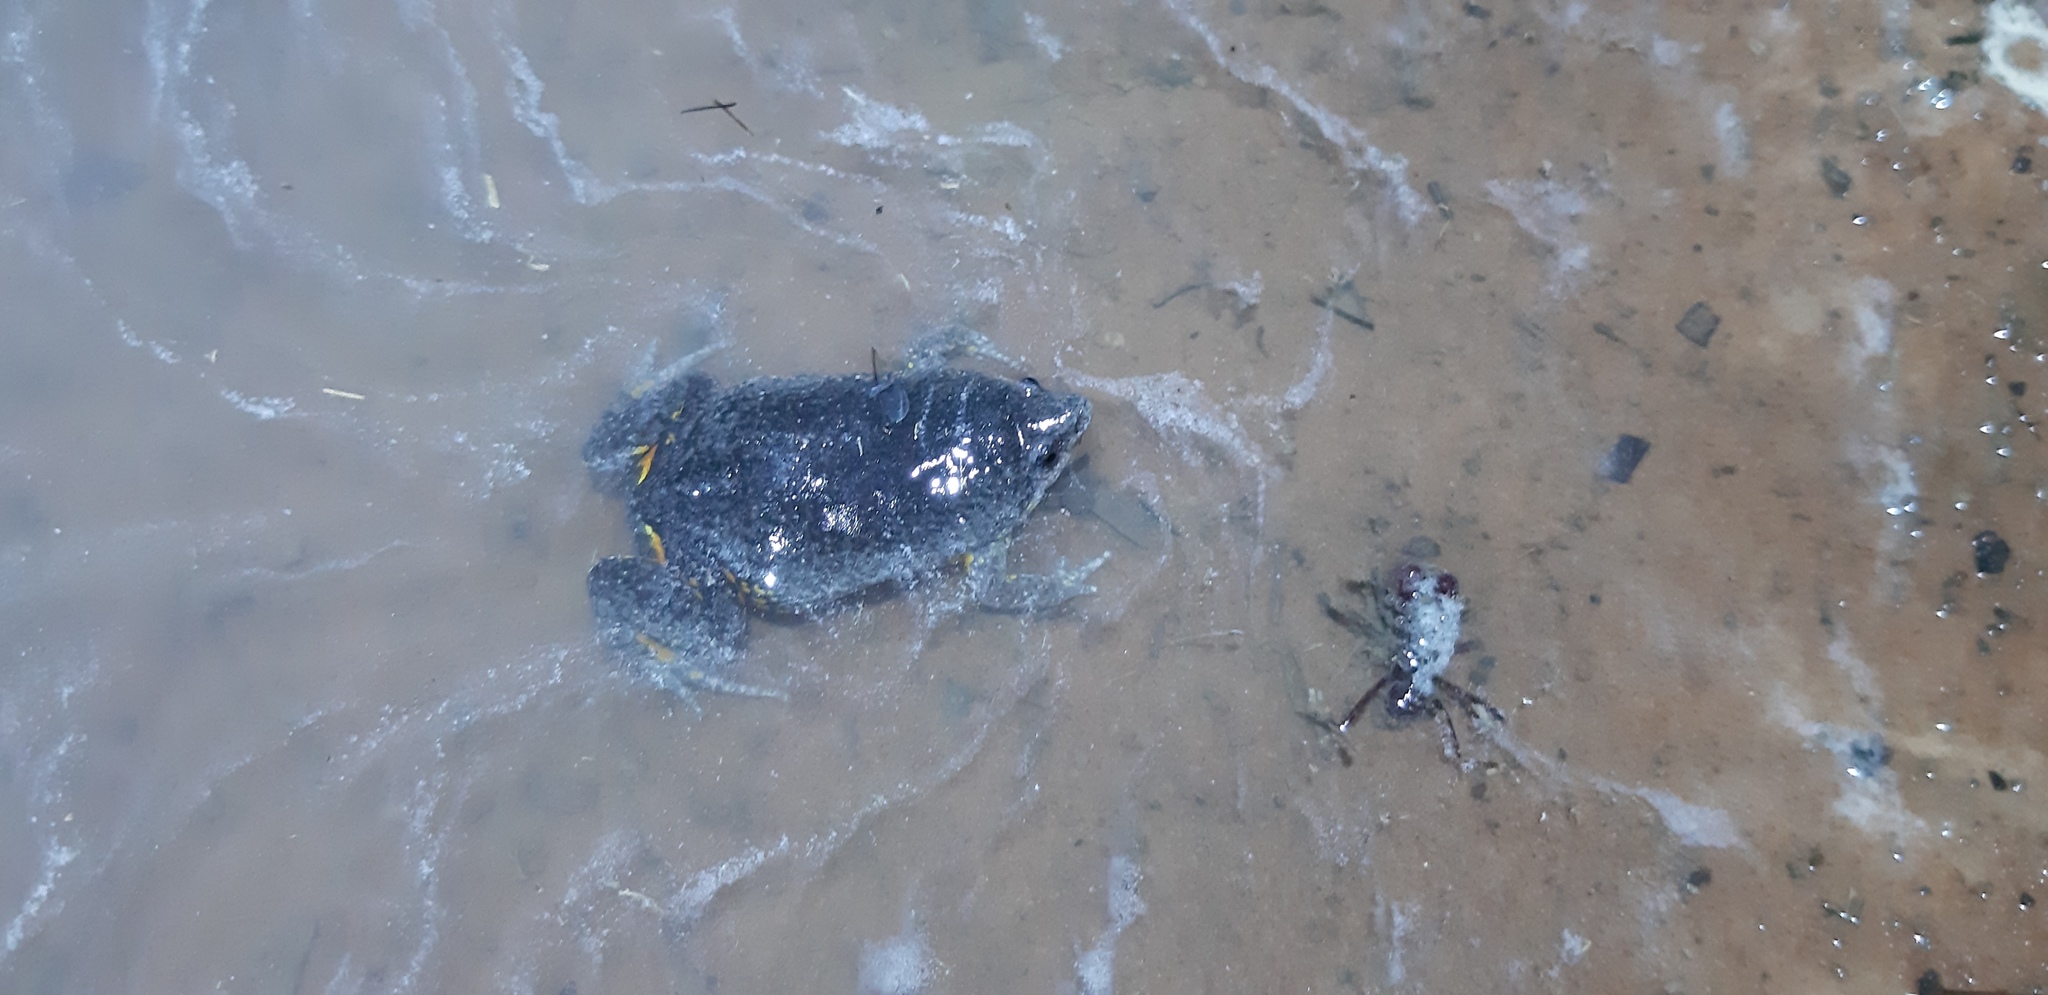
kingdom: Animalia
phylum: Chordata
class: Amphibia
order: Anura
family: Microhylidae
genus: Elachistocleis
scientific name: Elachistocleis magna
